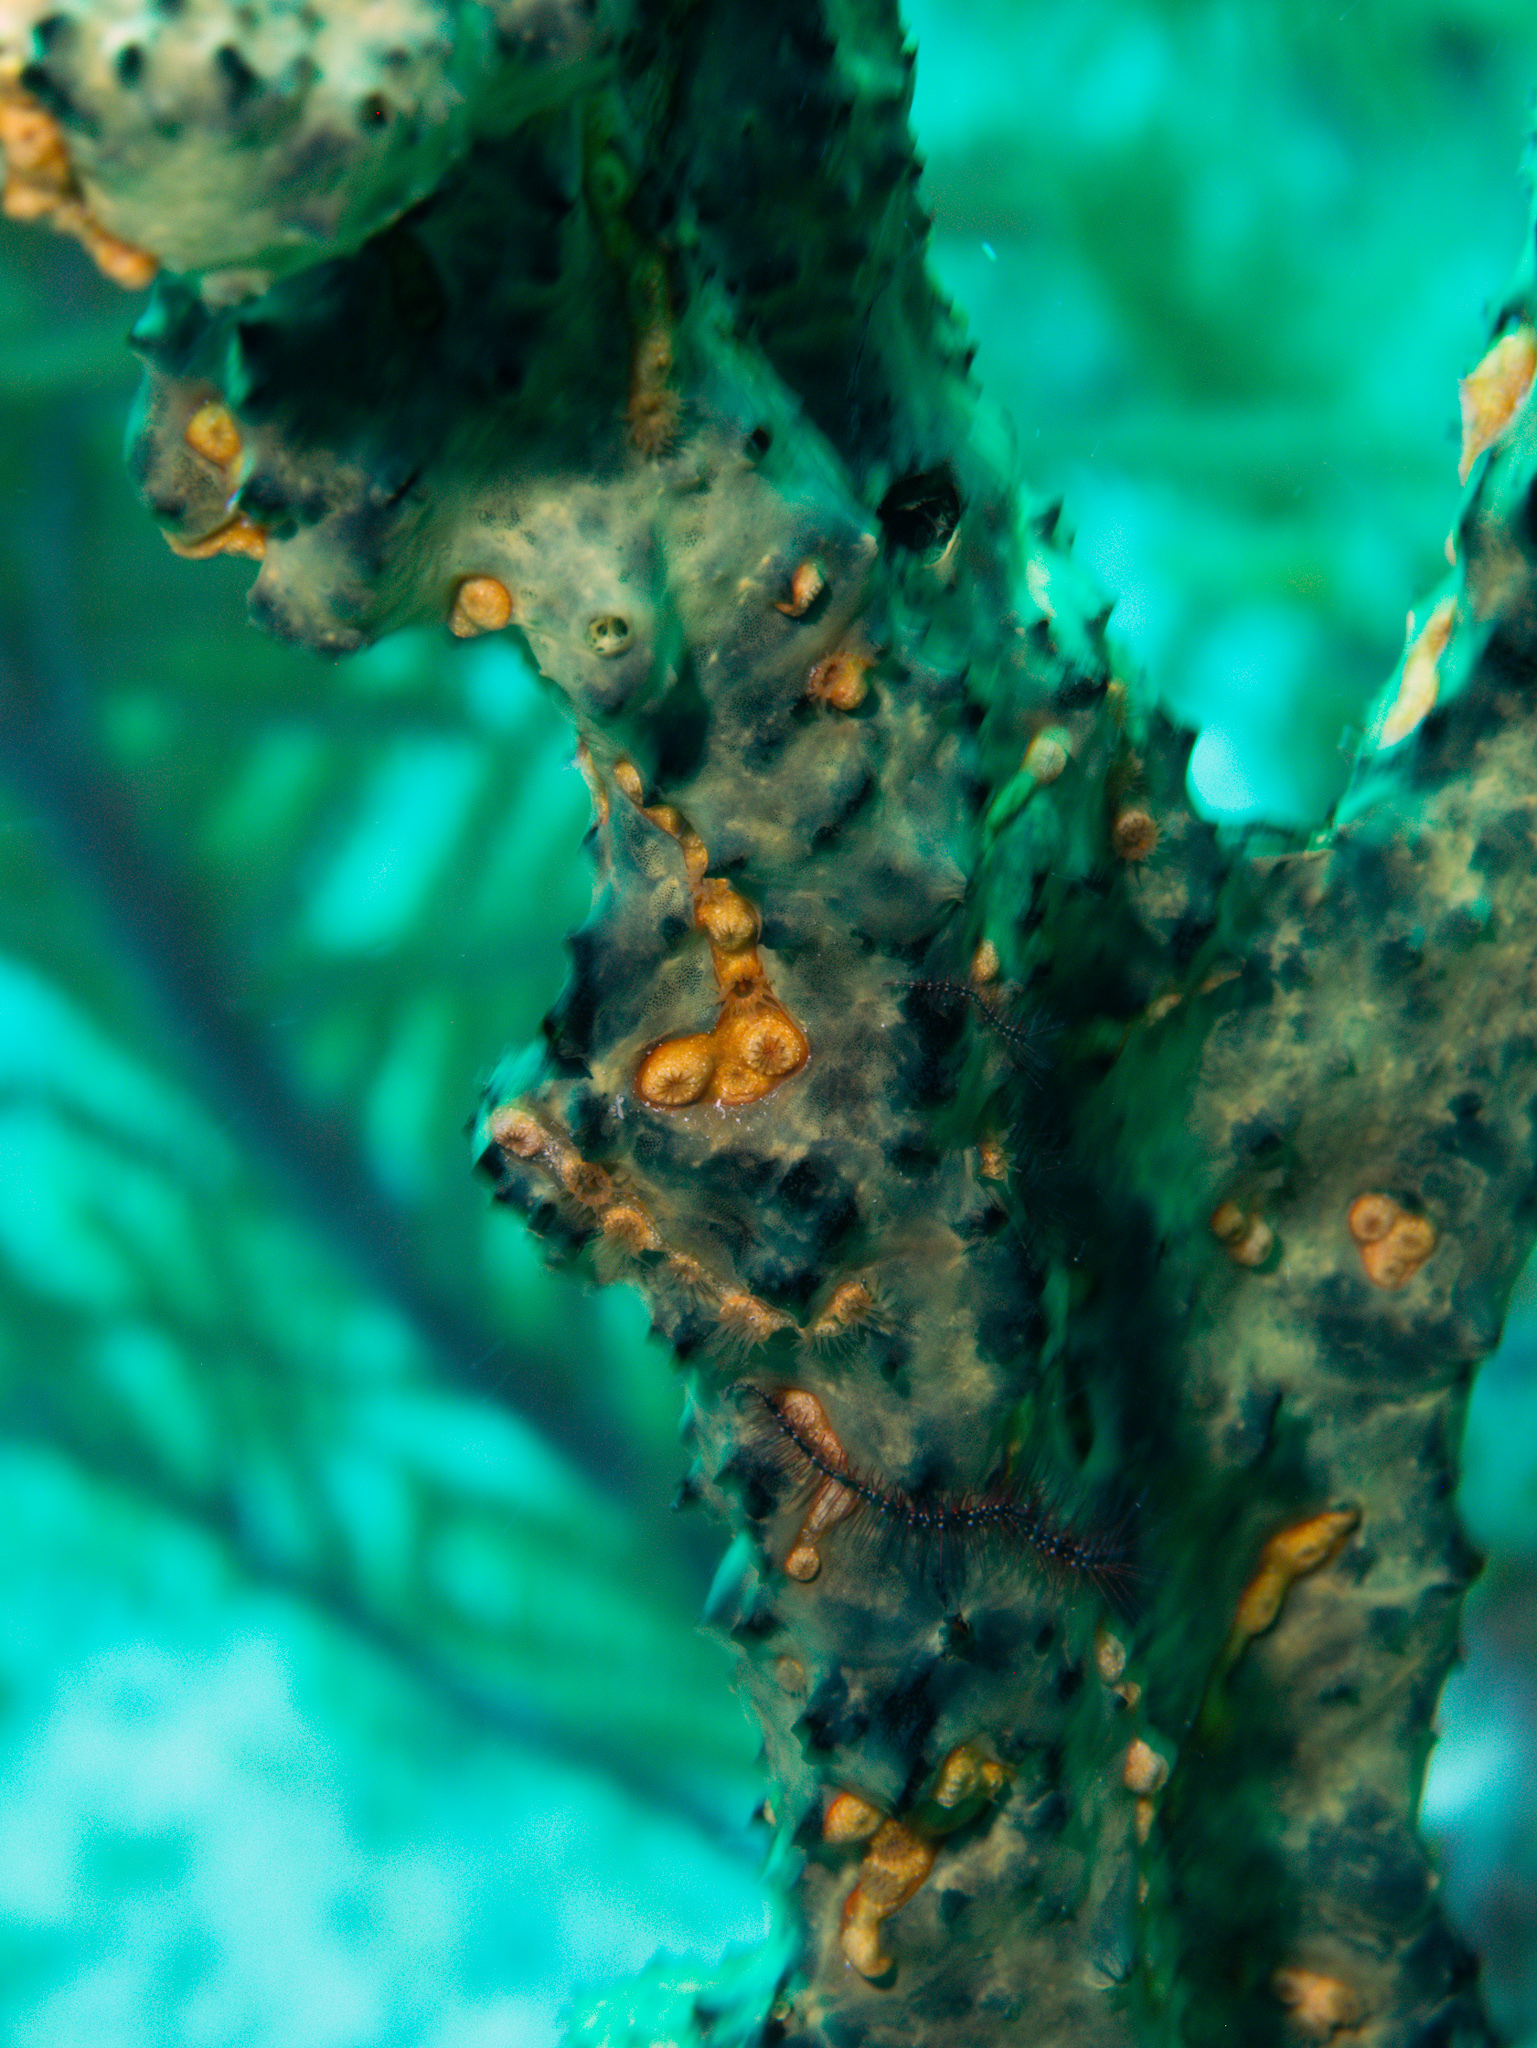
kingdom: Animalia
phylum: Porifera
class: Demospongiae
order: Poecilosclerida
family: Iotrochotidae
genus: Iotrochota
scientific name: Iotrochota birotulata
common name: Purple bleeding sponge
